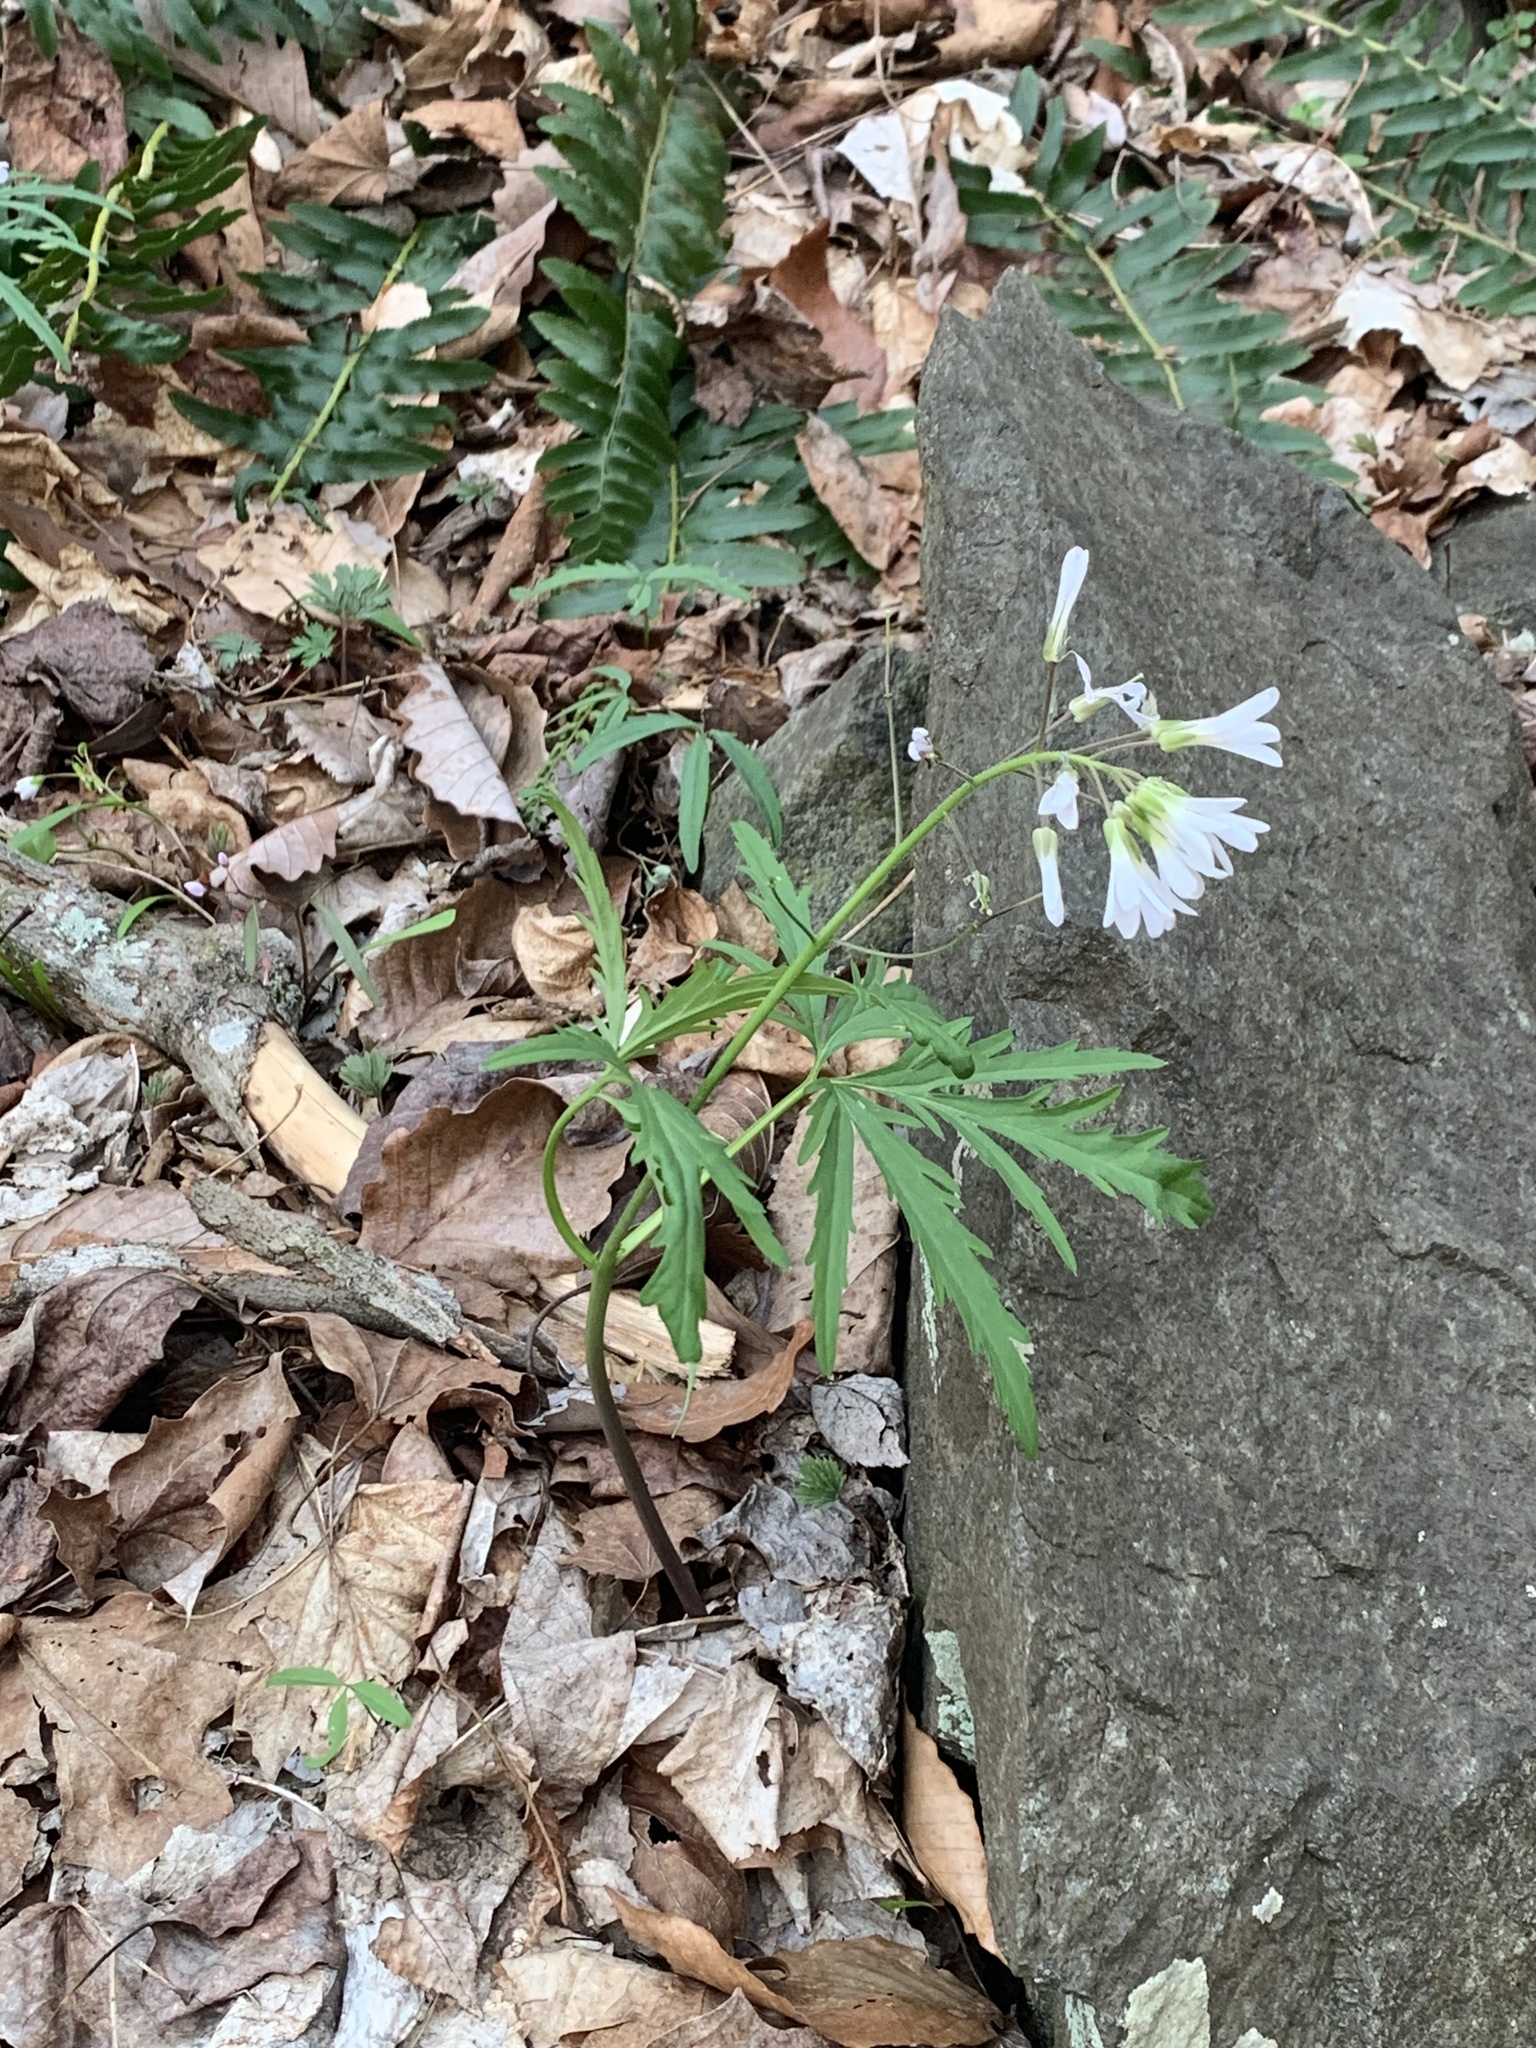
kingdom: Plantae
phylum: Tracheophyta
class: Magnoliopsida
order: Brassicales
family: Brassicaceae
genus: Cardamine
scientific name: Cardamine concatenata
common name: Cut-leaf toothcup
